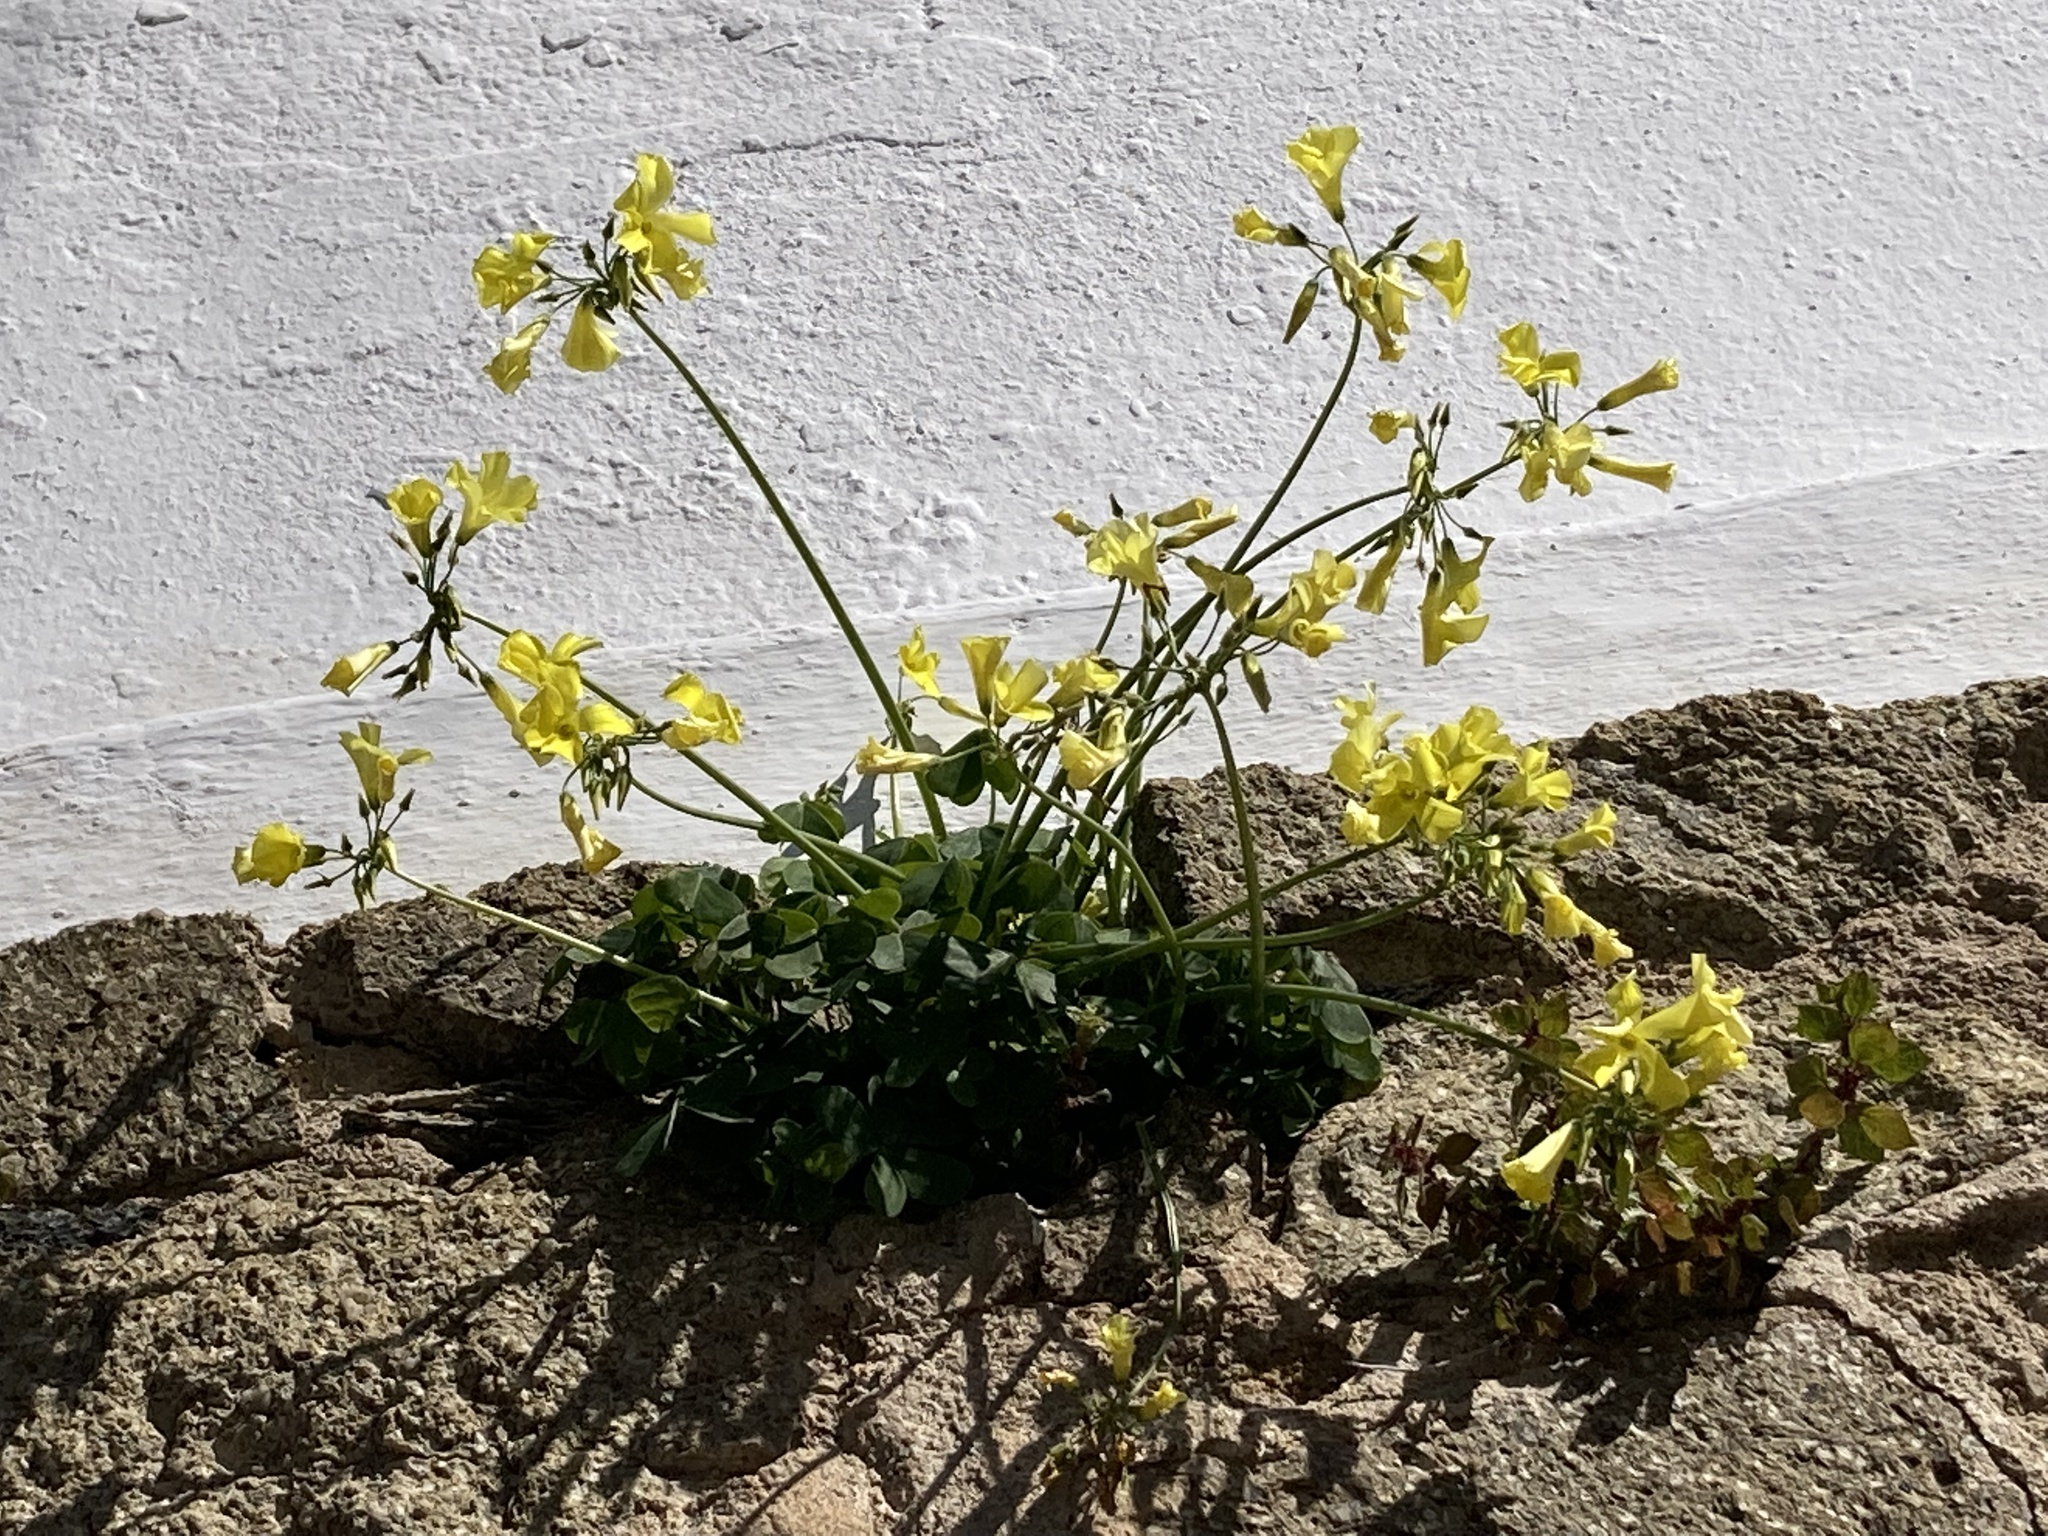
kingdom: Plantae
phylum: Tracheophyta
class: Magnoliopsida
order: Oxalidales
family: Oxalidaceae
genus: Oxalis
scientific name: Oxalis pes-caprae
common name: Bermuda-buttercup
